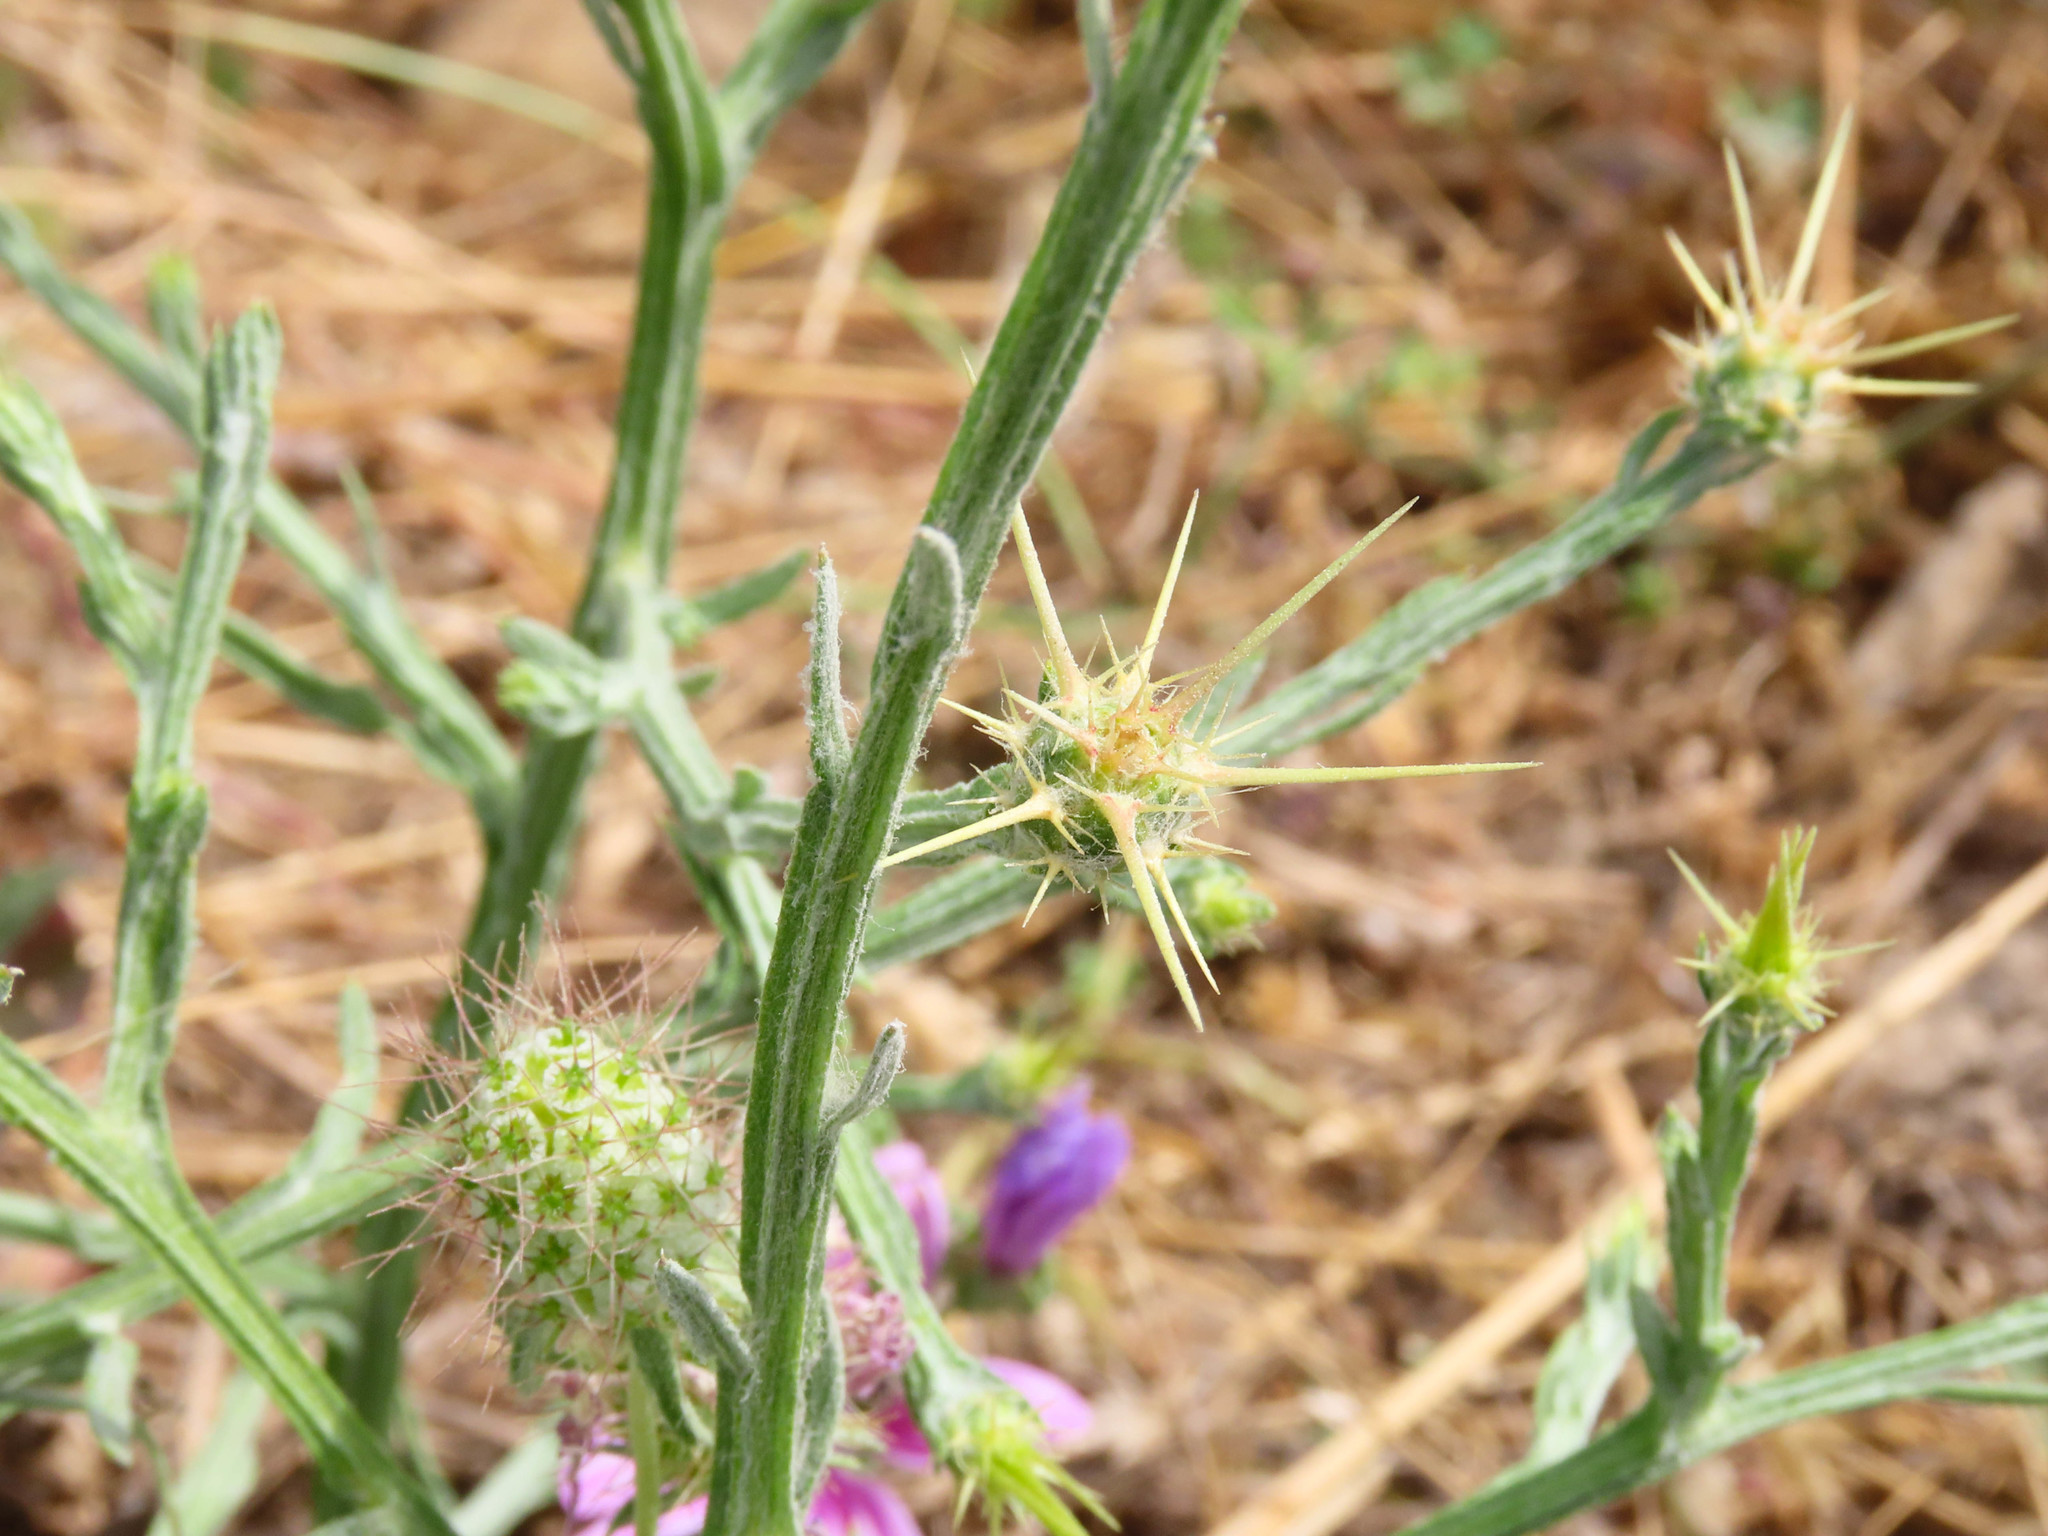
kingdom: Plantae
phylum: Tracheophyta
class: Magnoliopsida
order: Asterales
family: Asteraceae
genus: Centaurea
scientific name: Centaurea solstitialis
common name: Yellow star-thistle
